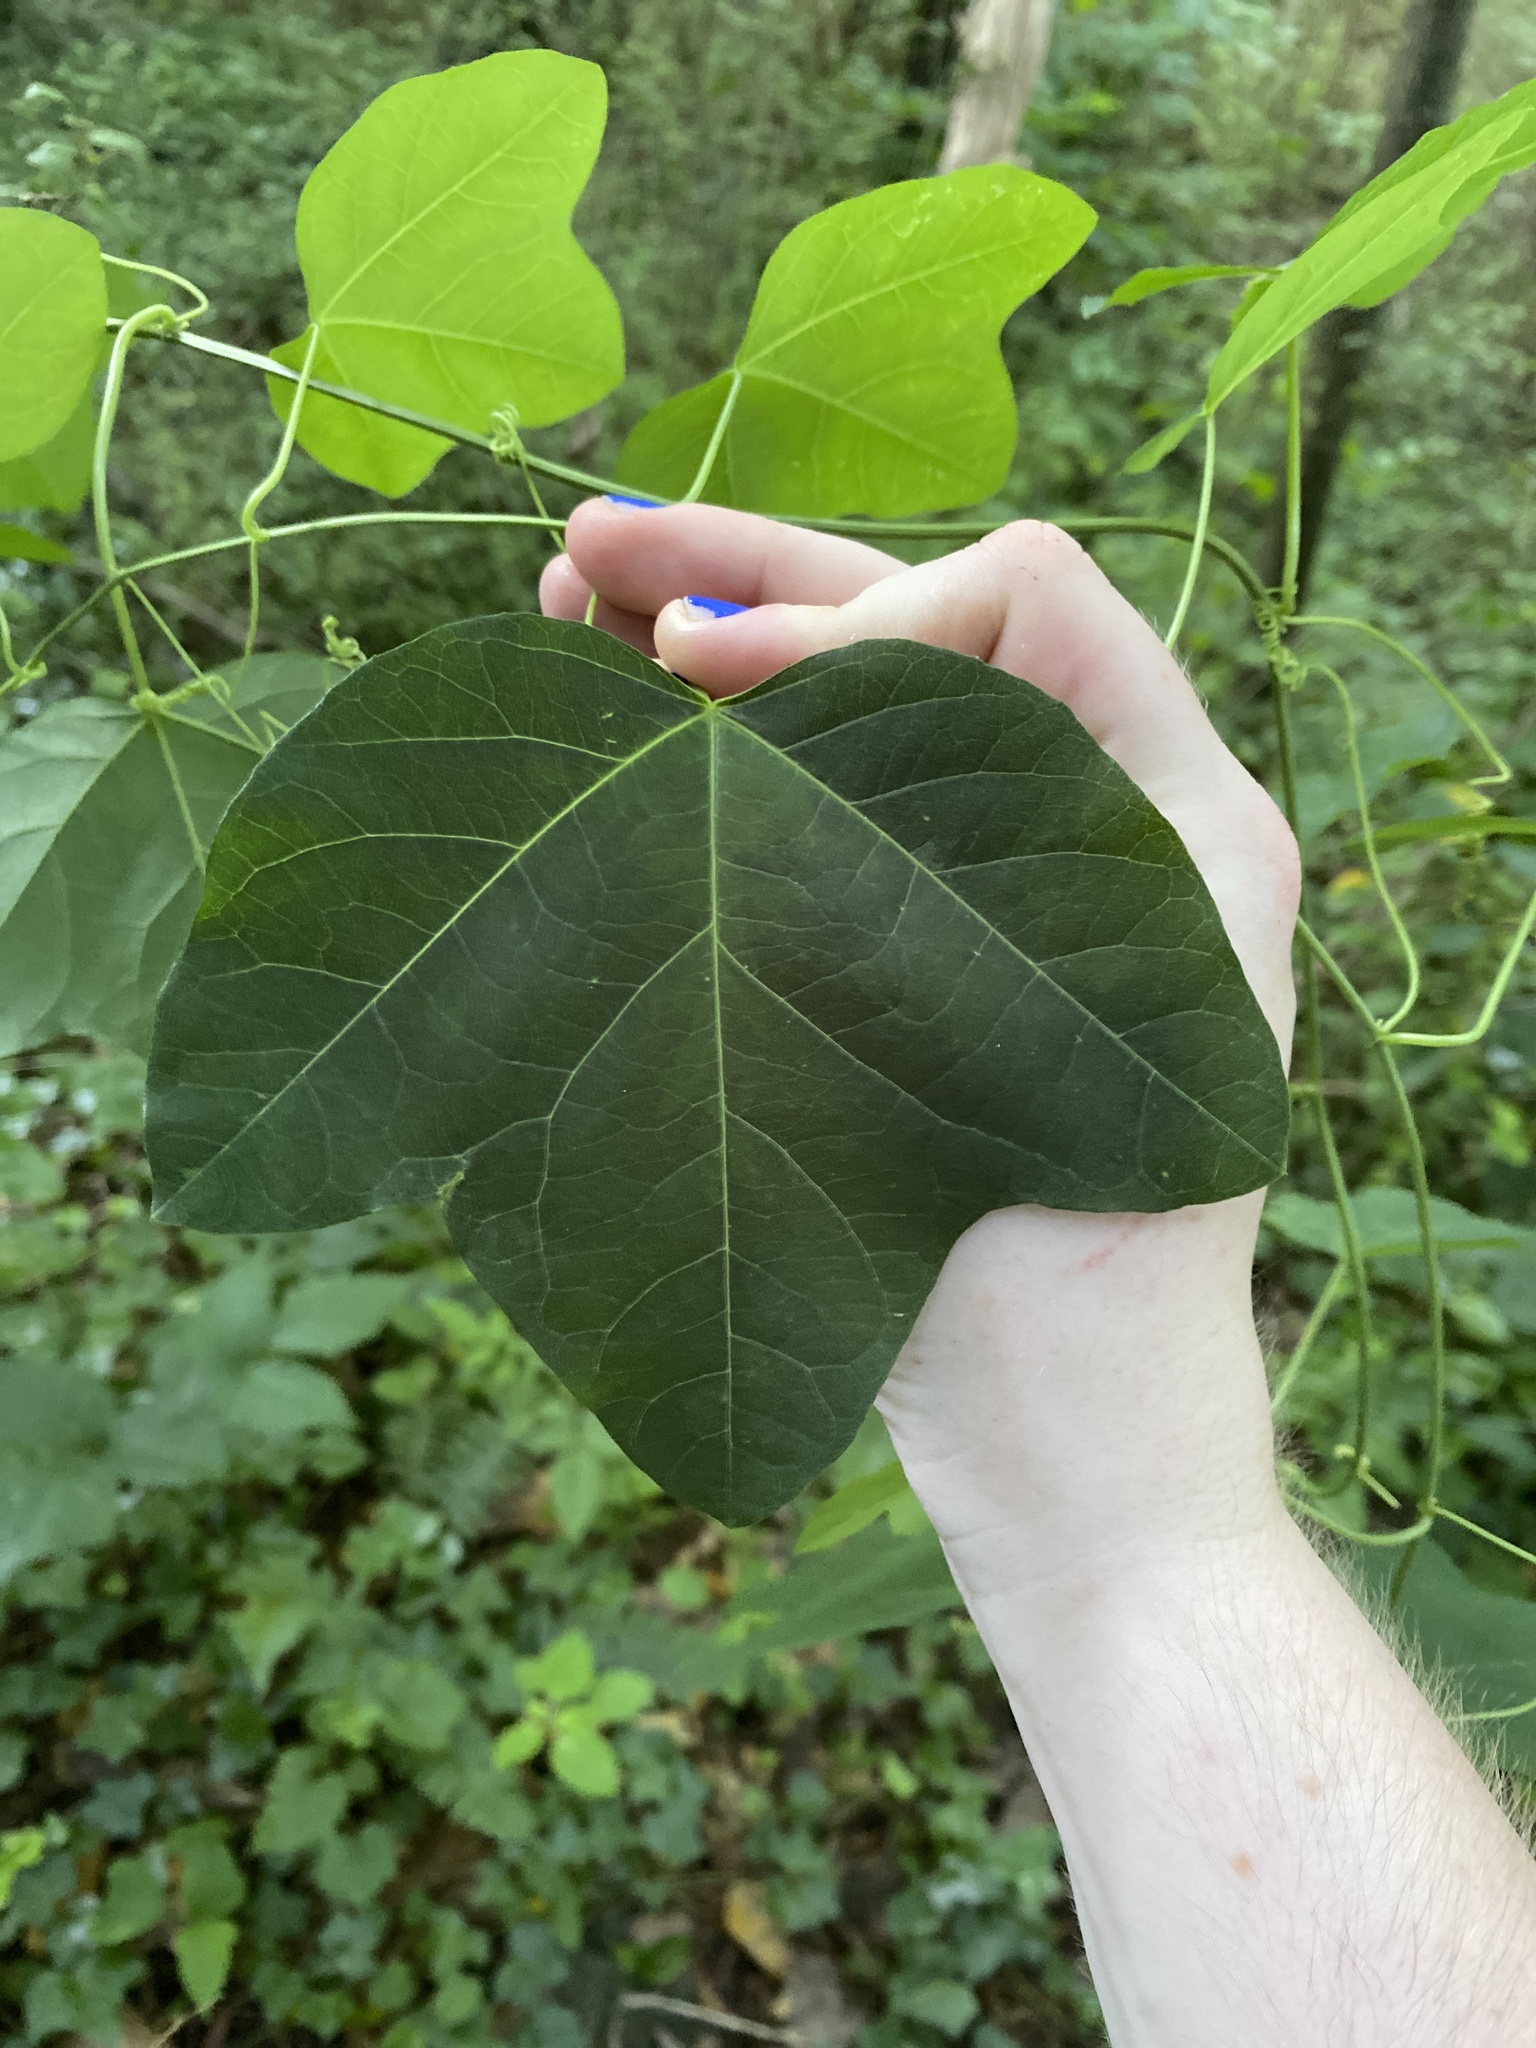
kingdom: Plantae
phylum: Tracheophyta
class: Magnoliopsida
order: Malpighiales
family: Passifloraceae
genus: Passiflora
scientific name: Passiflora lutea
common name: Yellow passionflower
